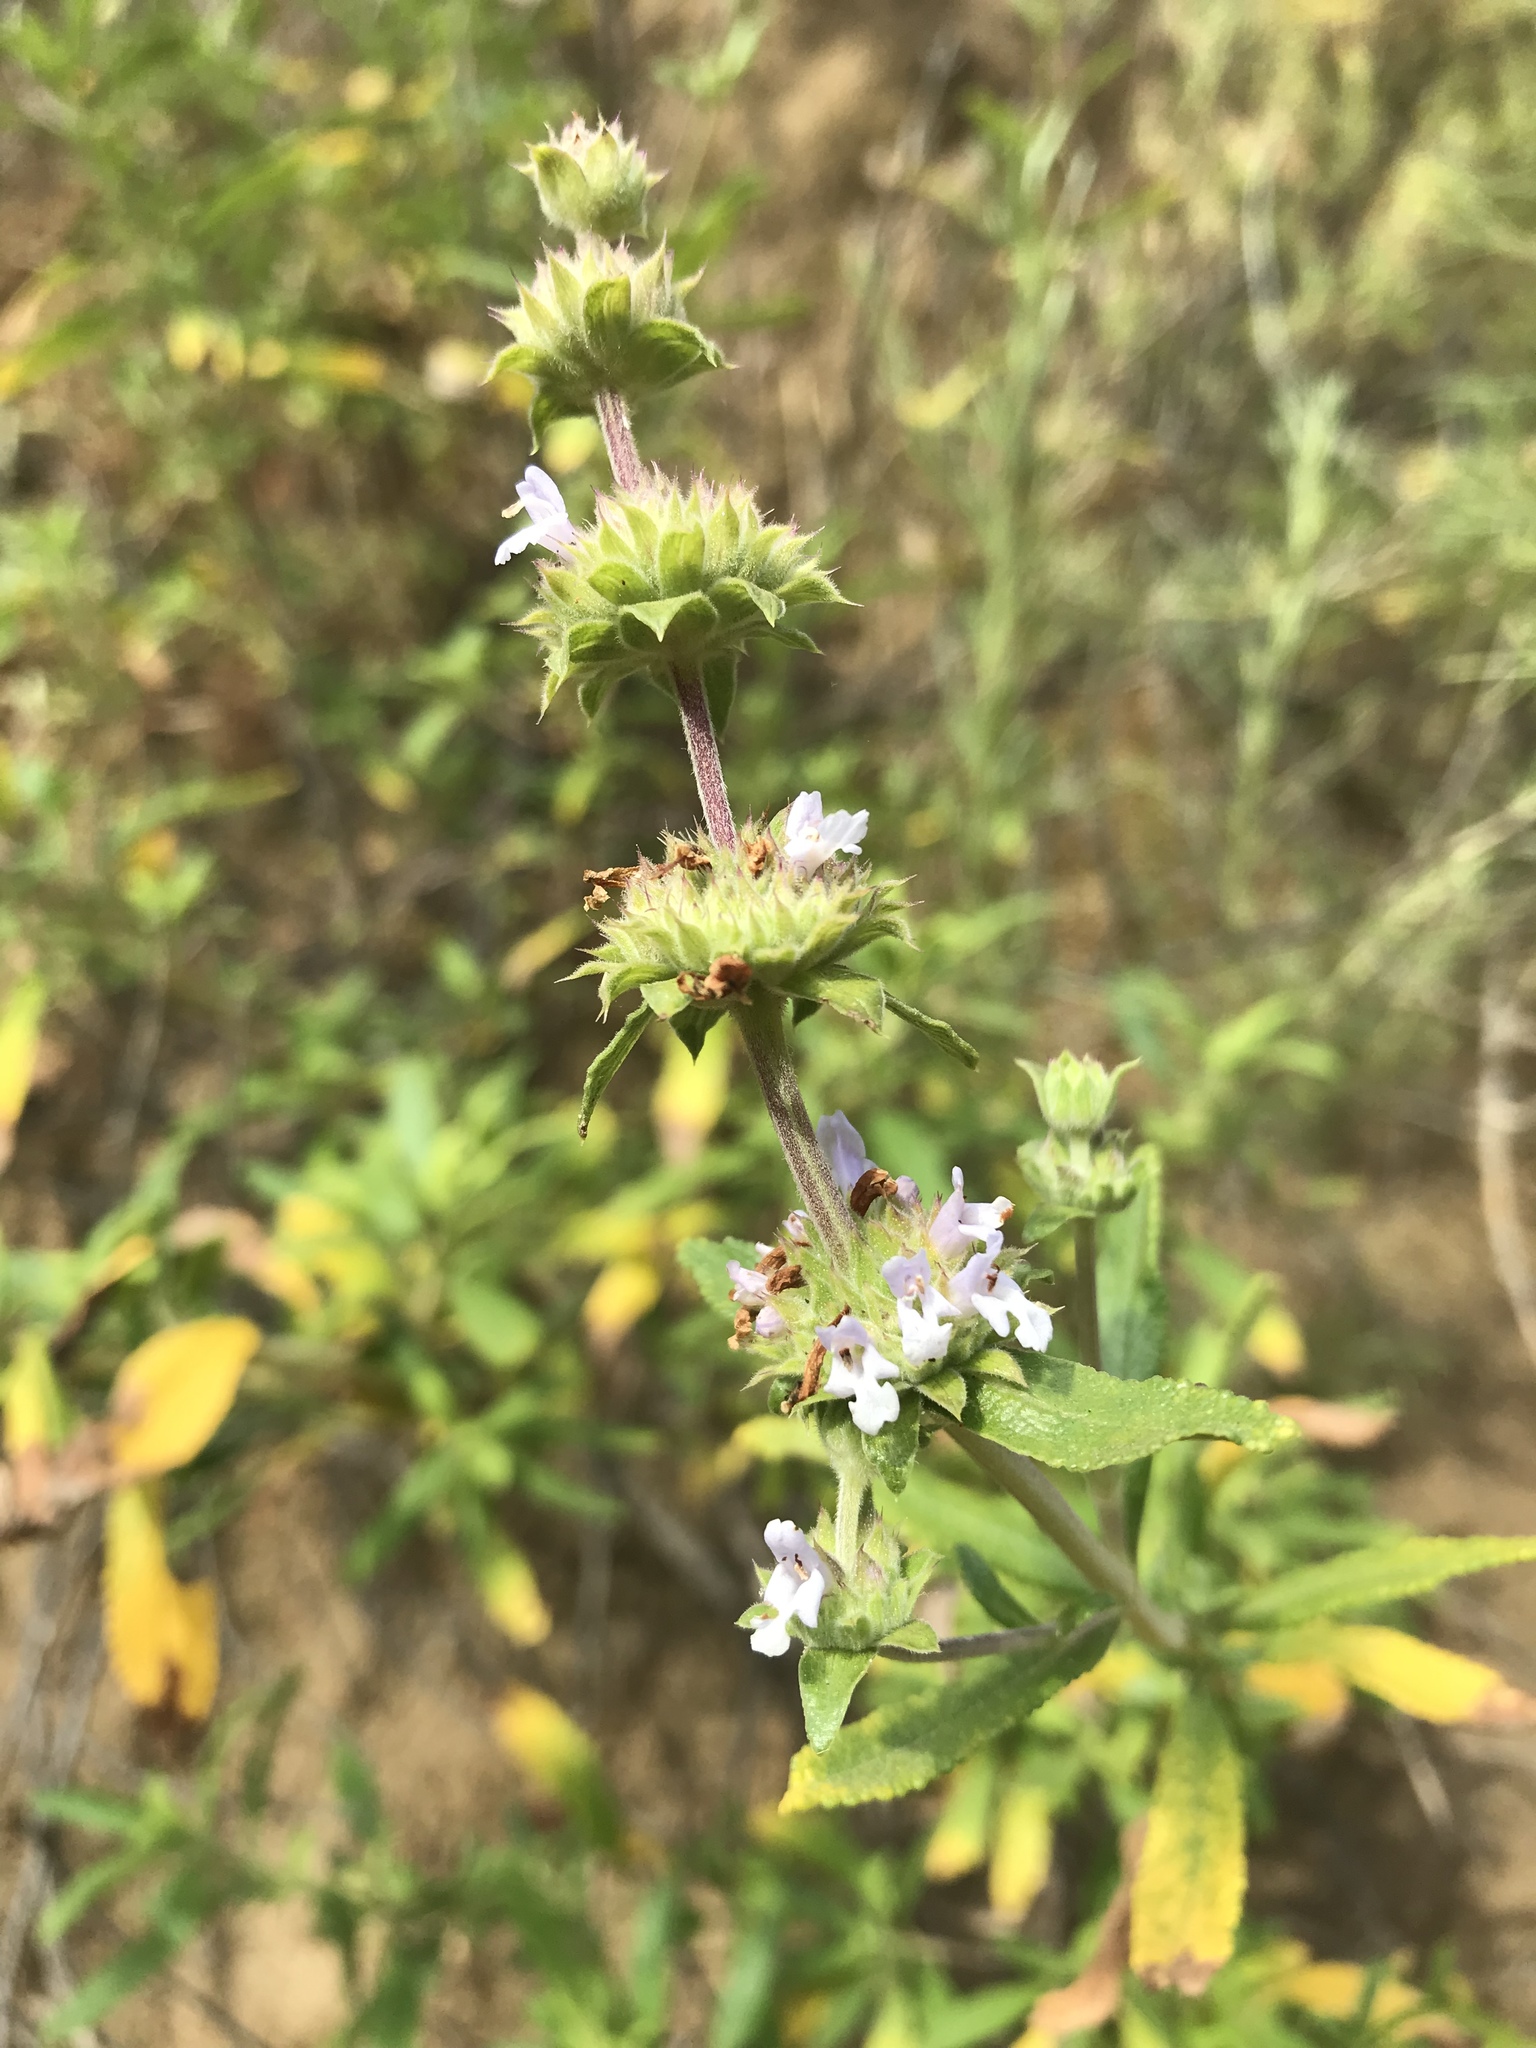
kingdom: Plantae
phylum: Tracheophyta
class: Magnoliopsida
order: Lamiales
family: Lamiaceae
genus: Salvia
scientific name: Salvia mellifera
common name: Black sage
